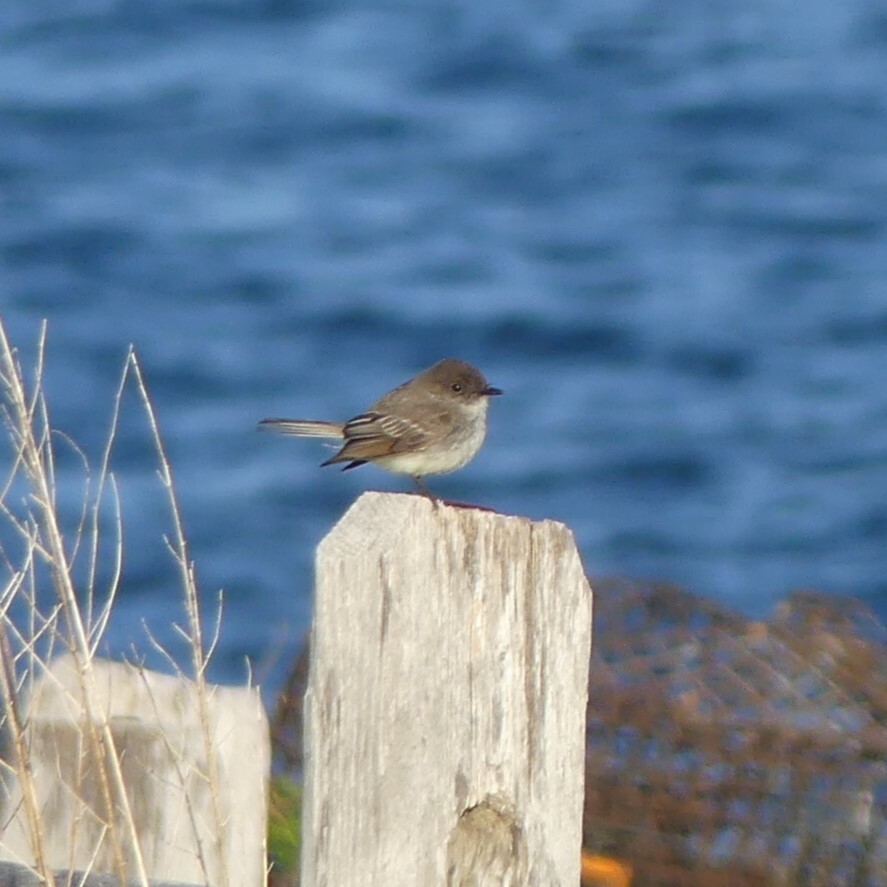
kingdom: Animalia
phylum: Chordata
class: Aves
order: Passeriformes
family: Tyrannidae
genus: Sayornis
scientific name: Sayornis phoebe
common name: Eastern phoebe
